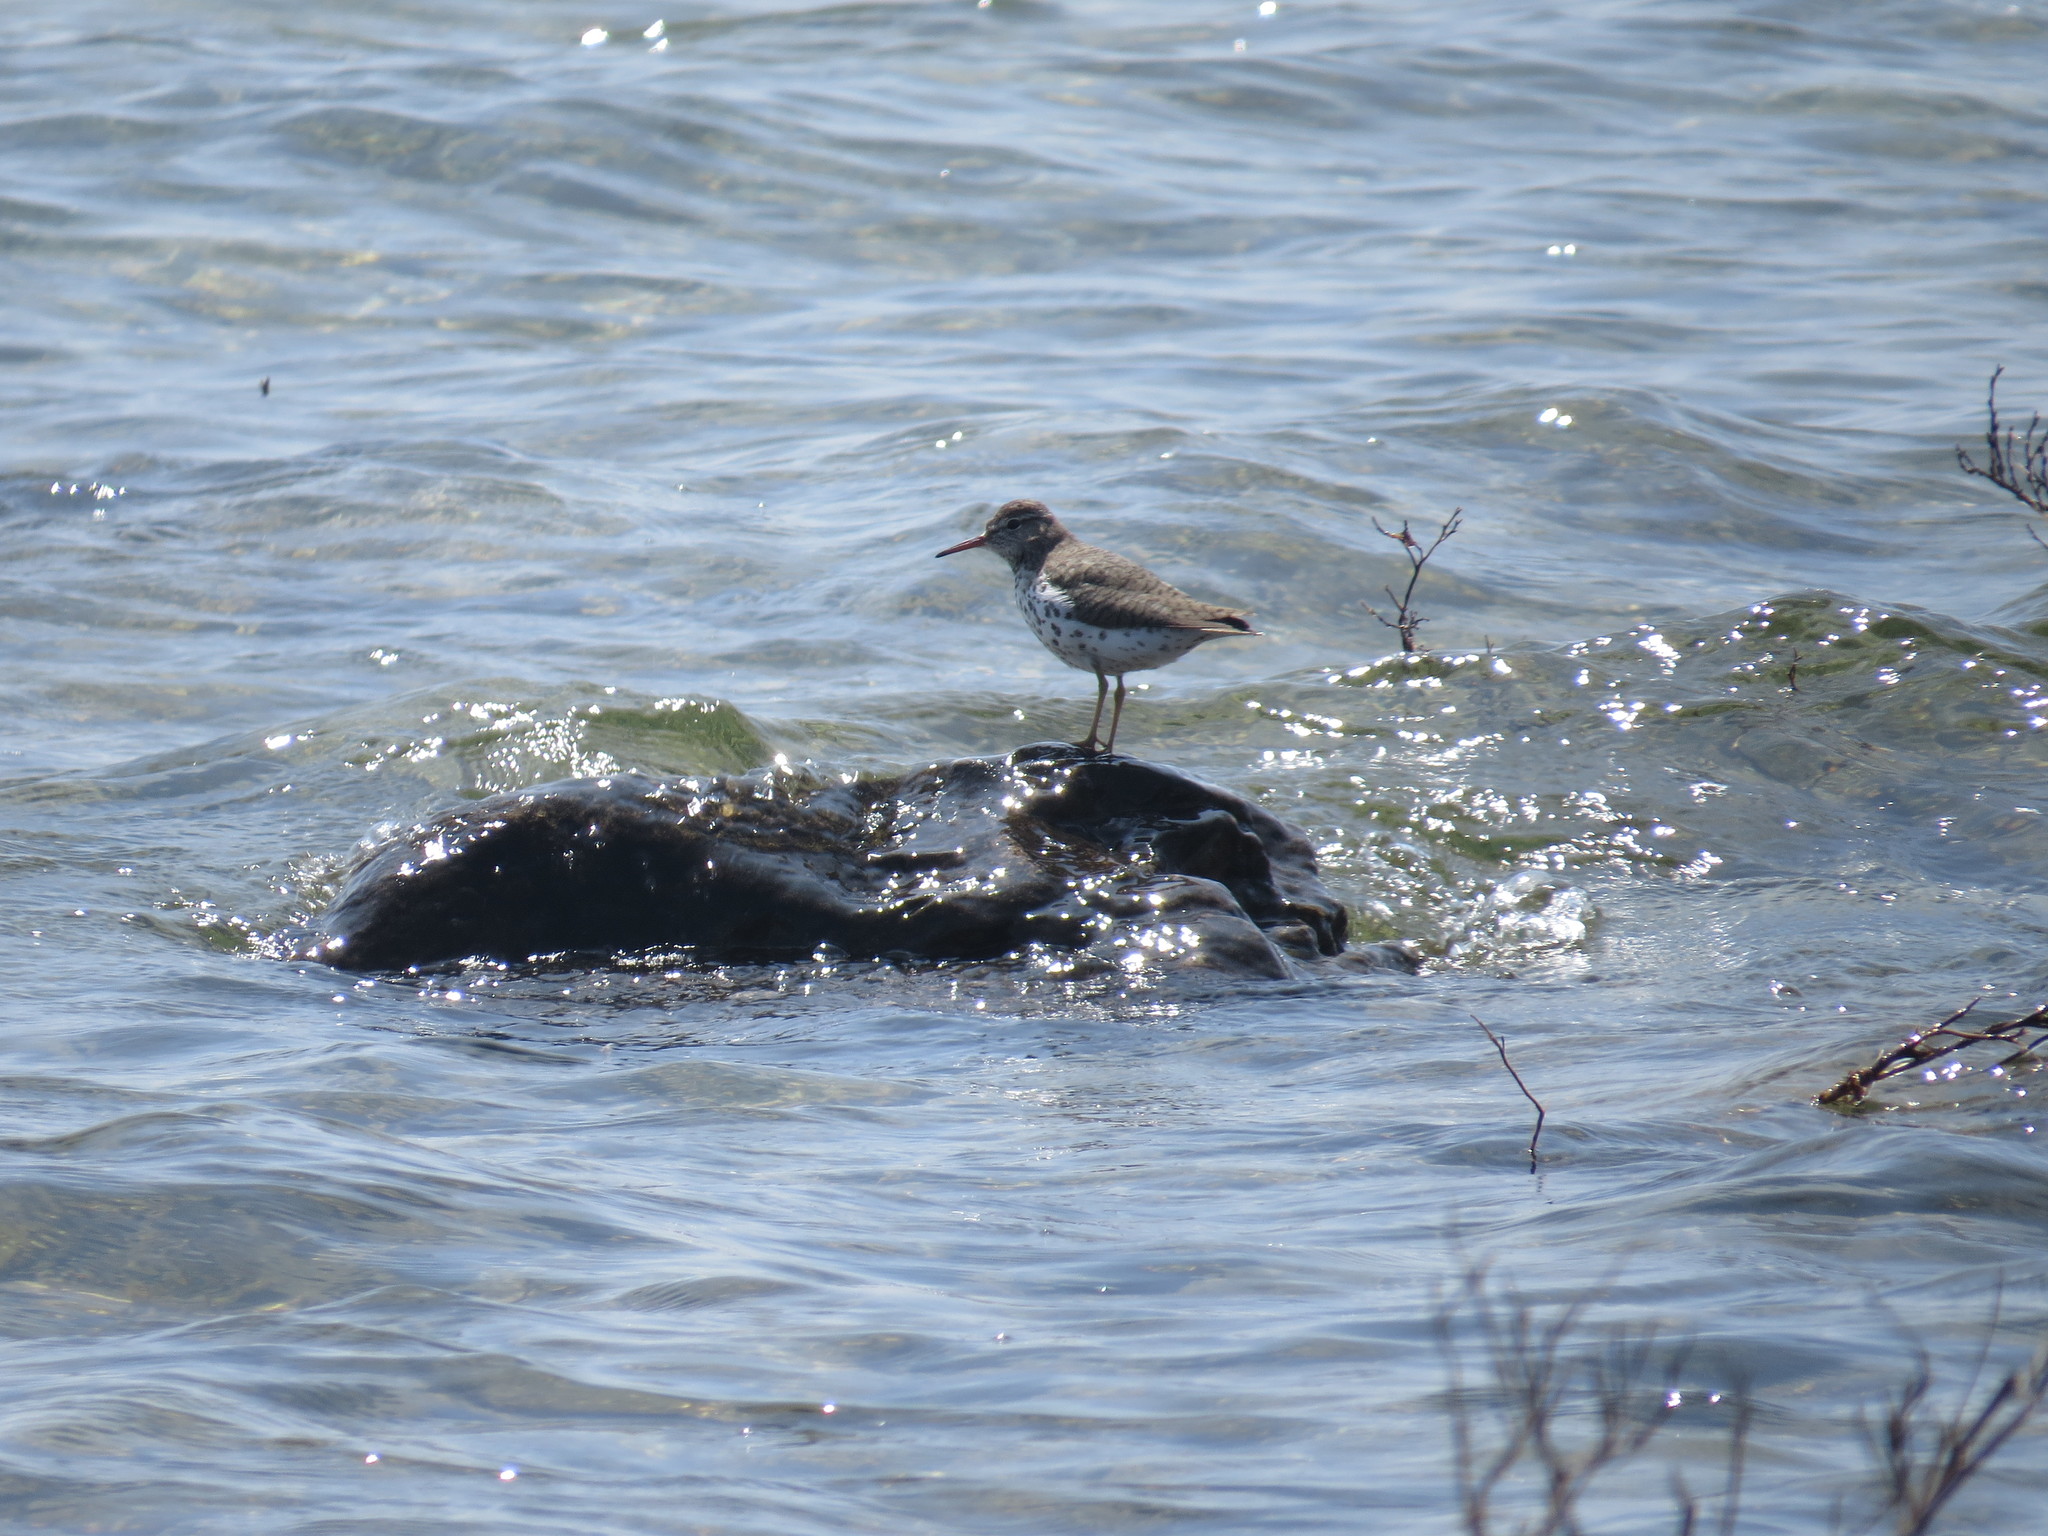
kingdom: Animalia
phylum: Chordata
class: Aves
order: Charadriiformes
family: Scolopacidae
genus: Actitis
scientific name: Actitis macularius
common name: Spotted sandpiper
